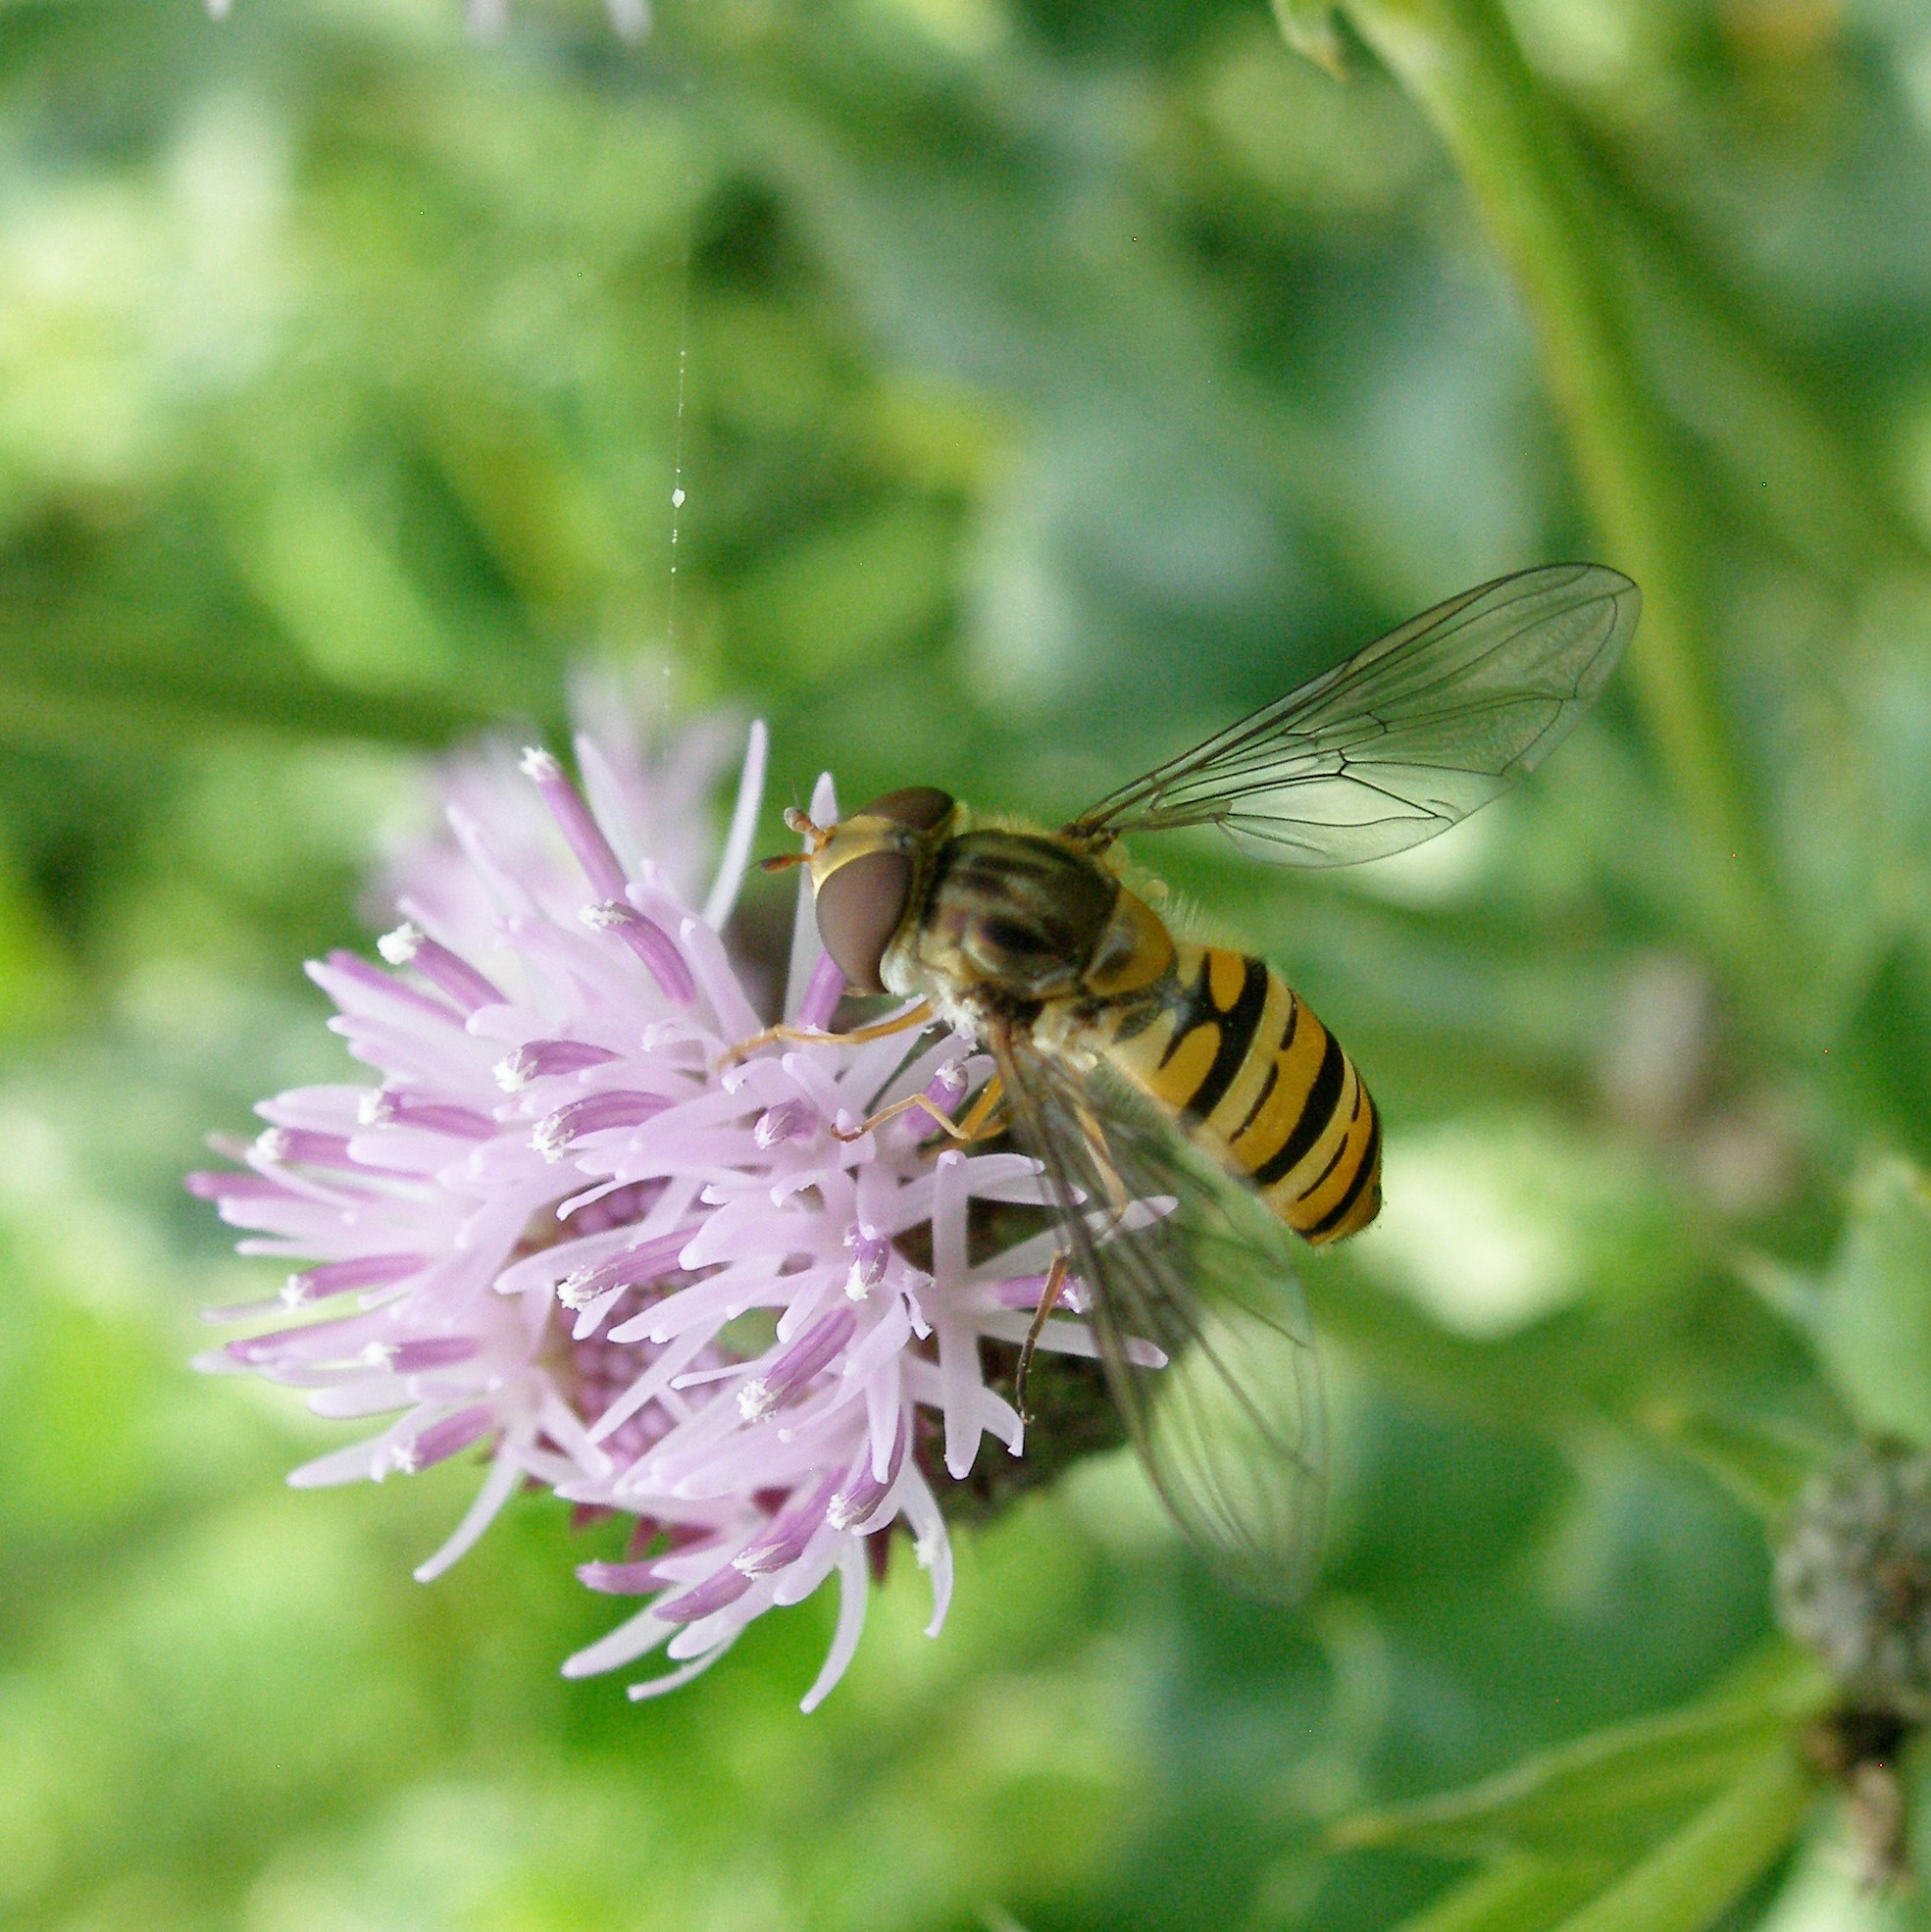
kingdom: Animalia
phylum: Arthropoda
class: Insecta
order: Diptera
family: Syrphidae
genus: Episyrphus
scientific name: Episyrphus balteatus
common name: Marmalade hoverfly
